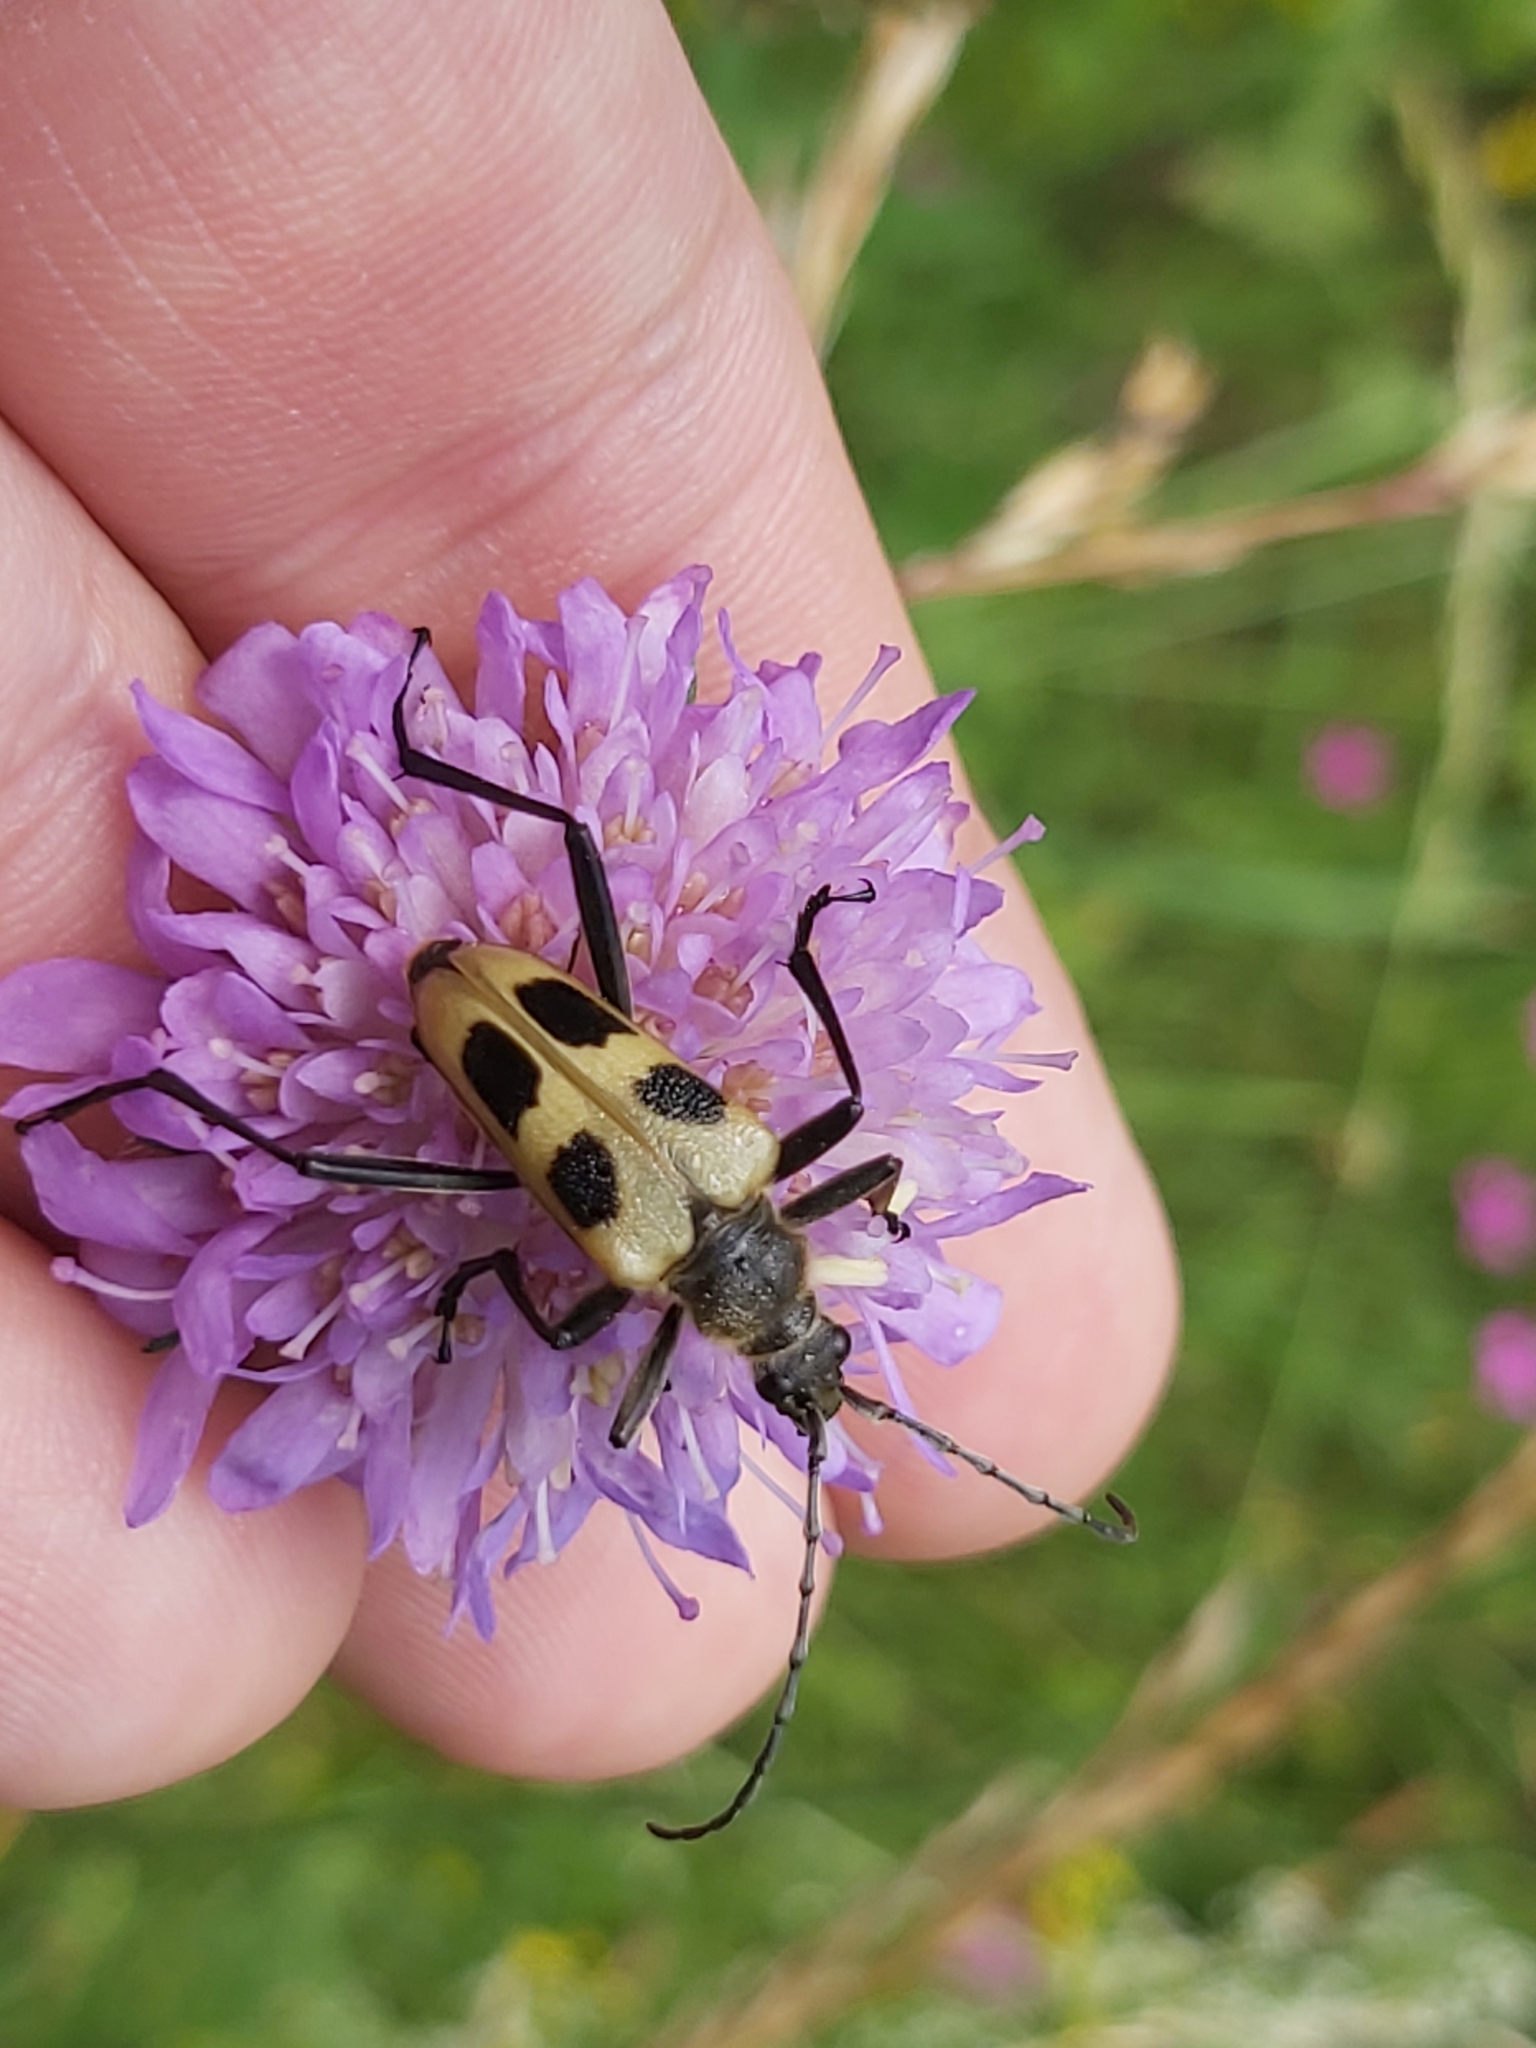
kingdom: Animalia
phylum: Arthropoda
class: Insecta
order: Coleoptera
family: Cerambycidae
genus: Pachyta
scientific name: Pachyta quadrimaculata
